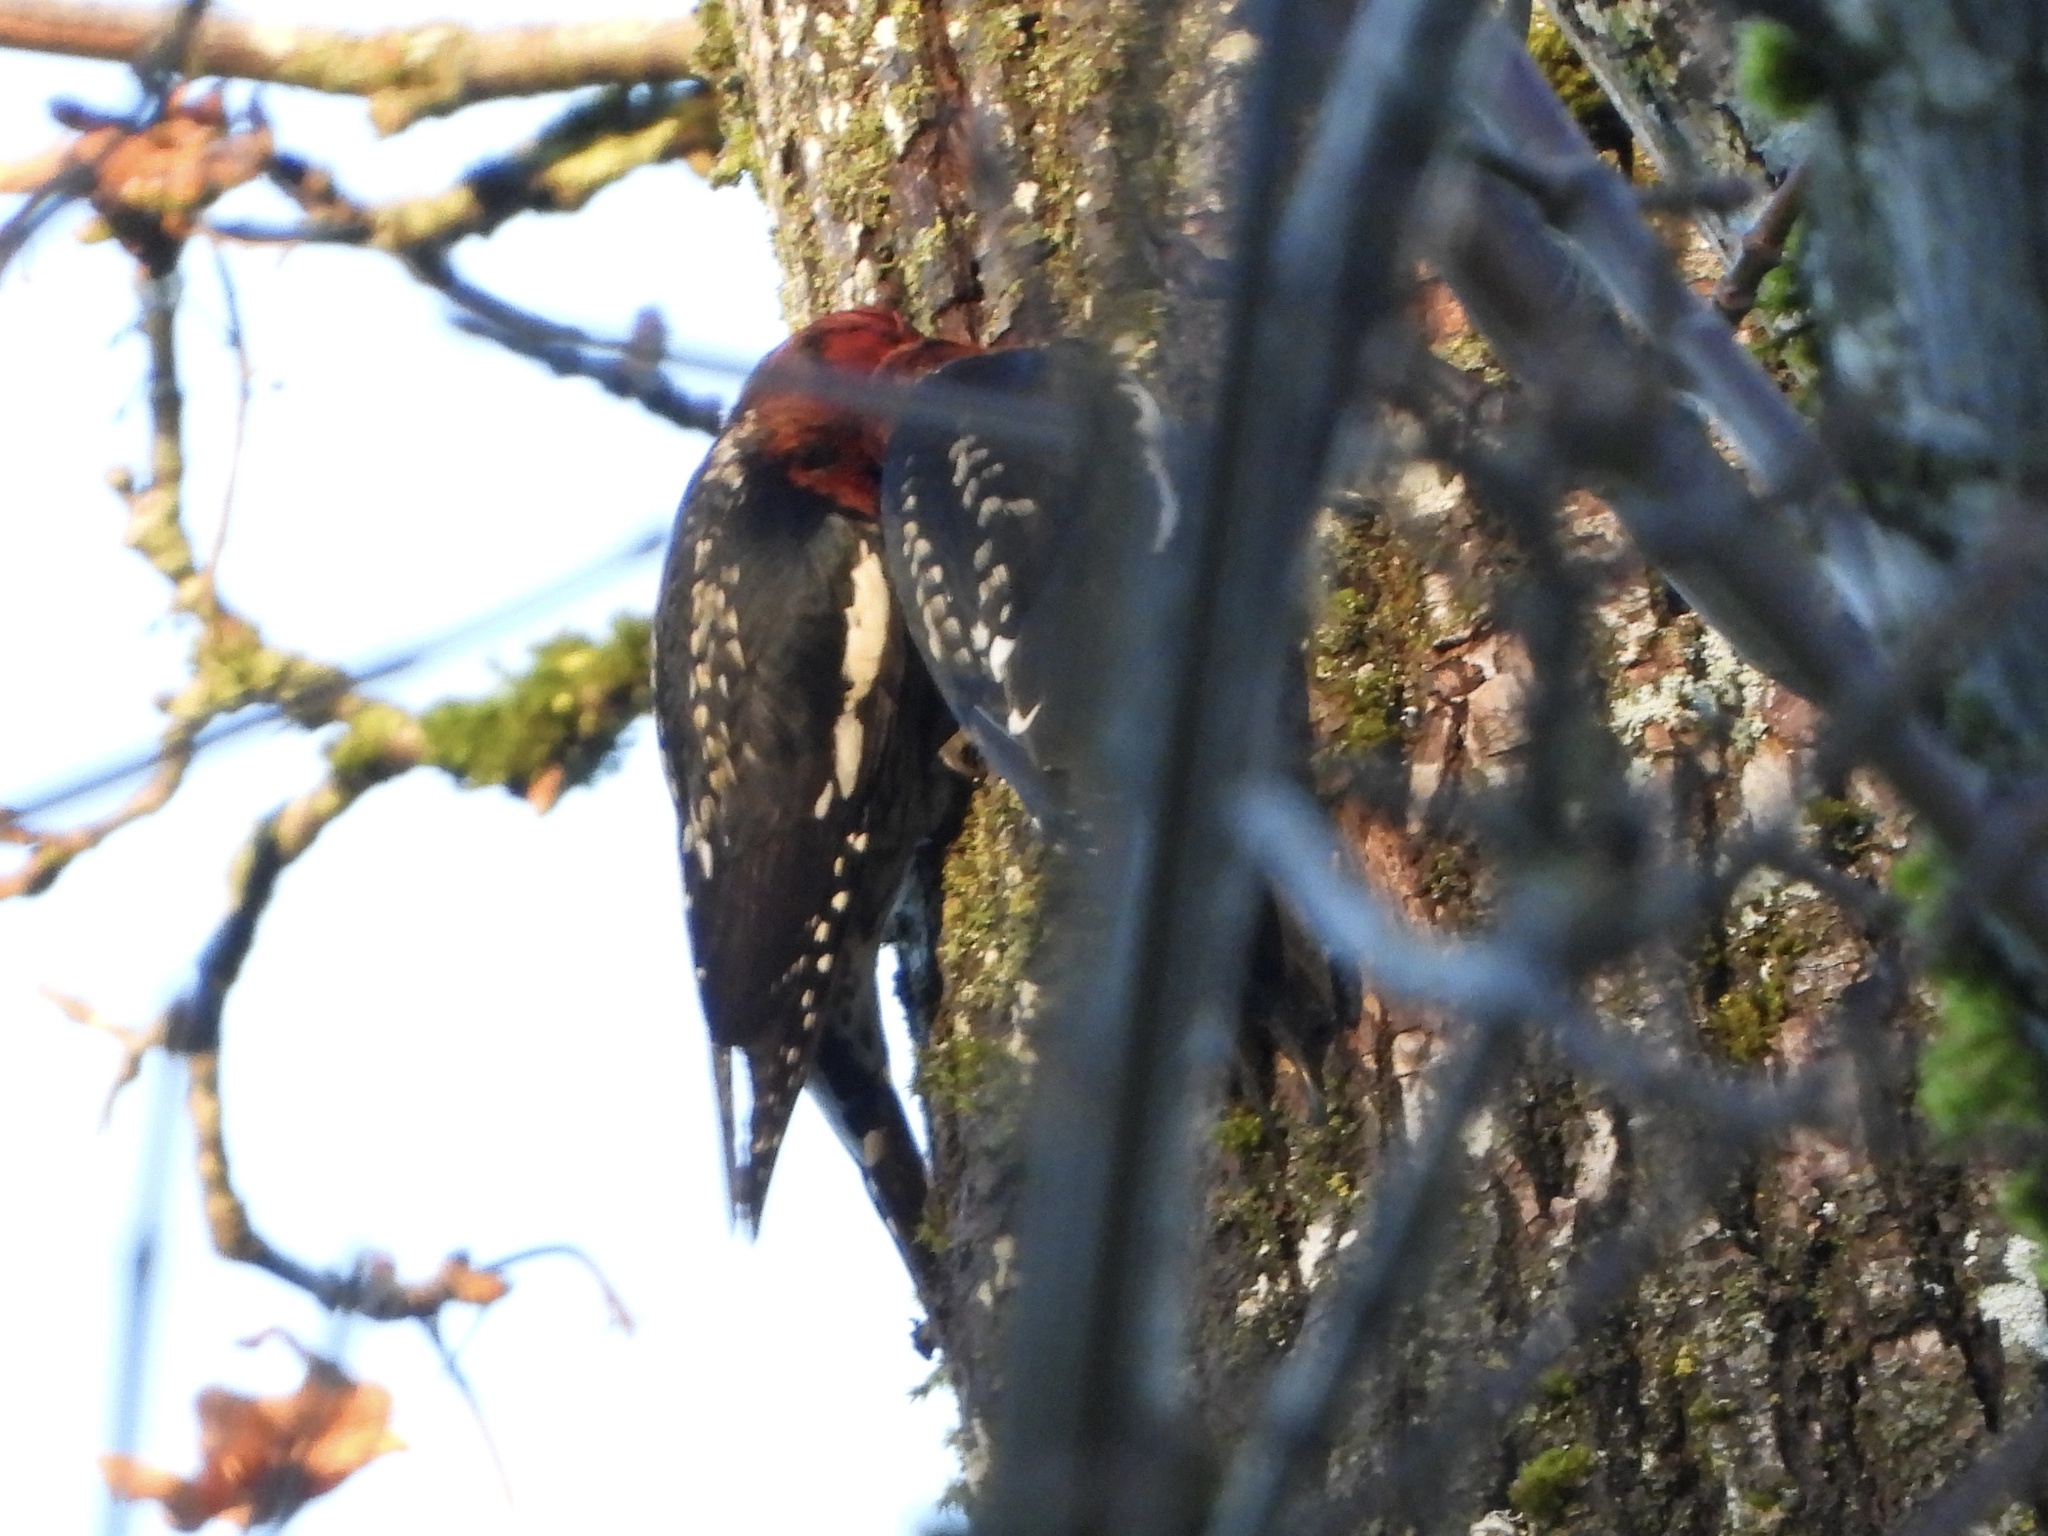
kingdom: Animalia
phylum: Chordata
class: Aves
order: Piciformes
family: Picidae
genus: Sphyrapicus
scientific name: Sphyrapicus ruber
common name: Red-breasted sapsucker
